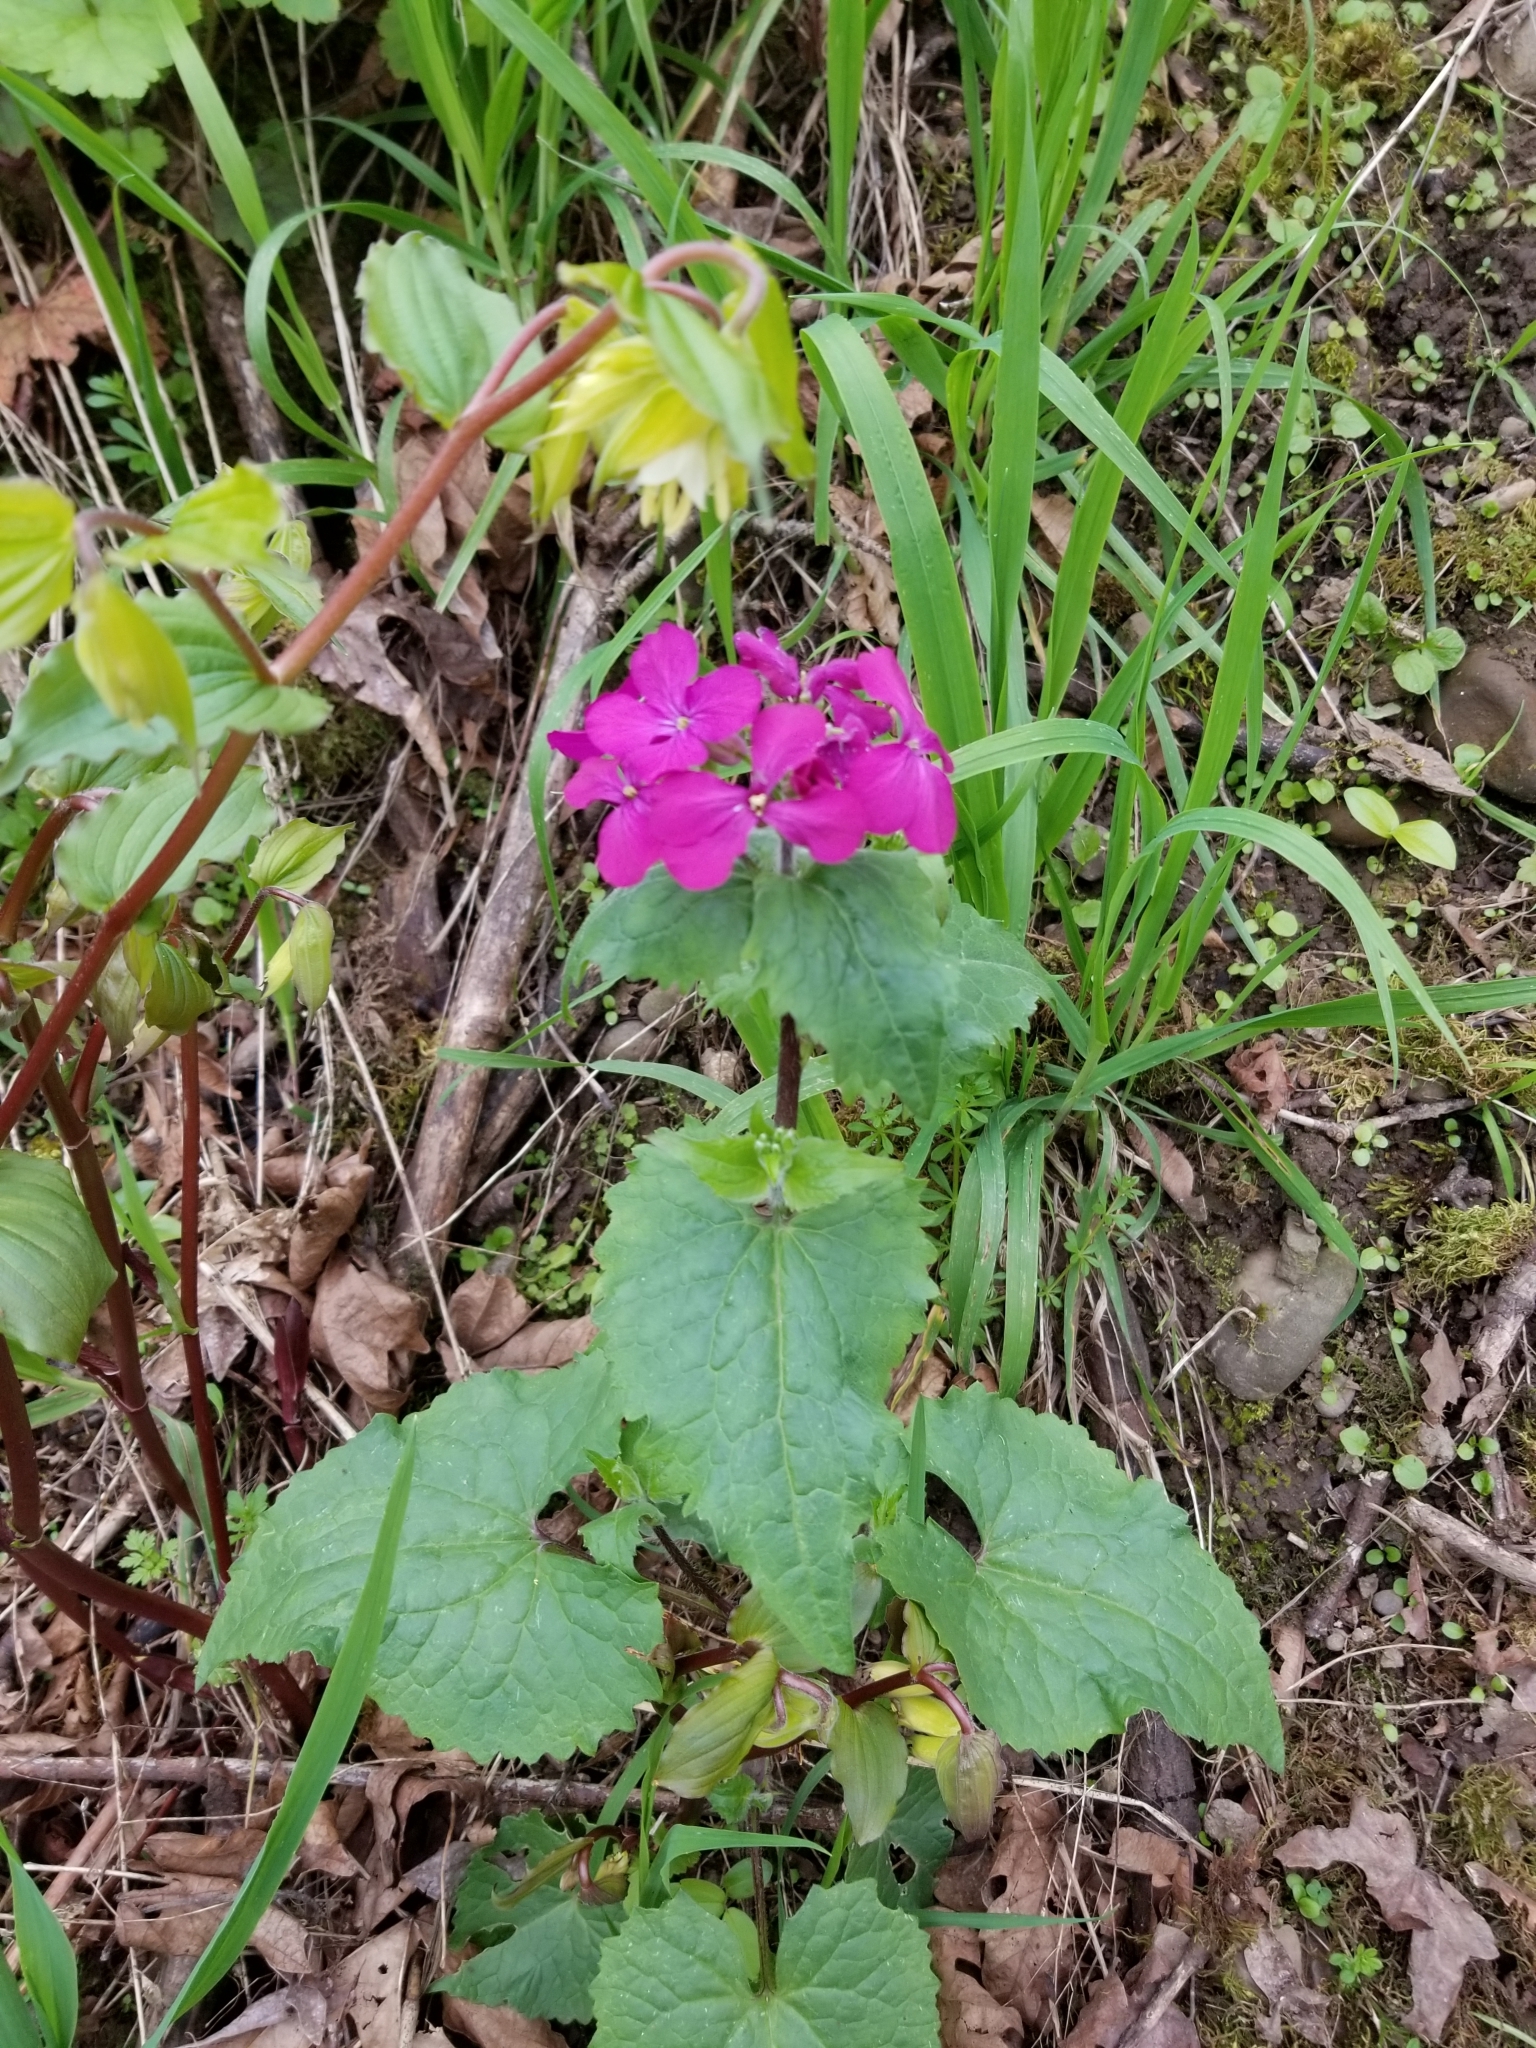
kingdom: Plantae
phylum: Tracheophyta
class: Magnoliopsida
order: Brassicales
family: Brassicaceae
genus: Lunaria
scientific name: Lunaria annua
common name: Honesty
